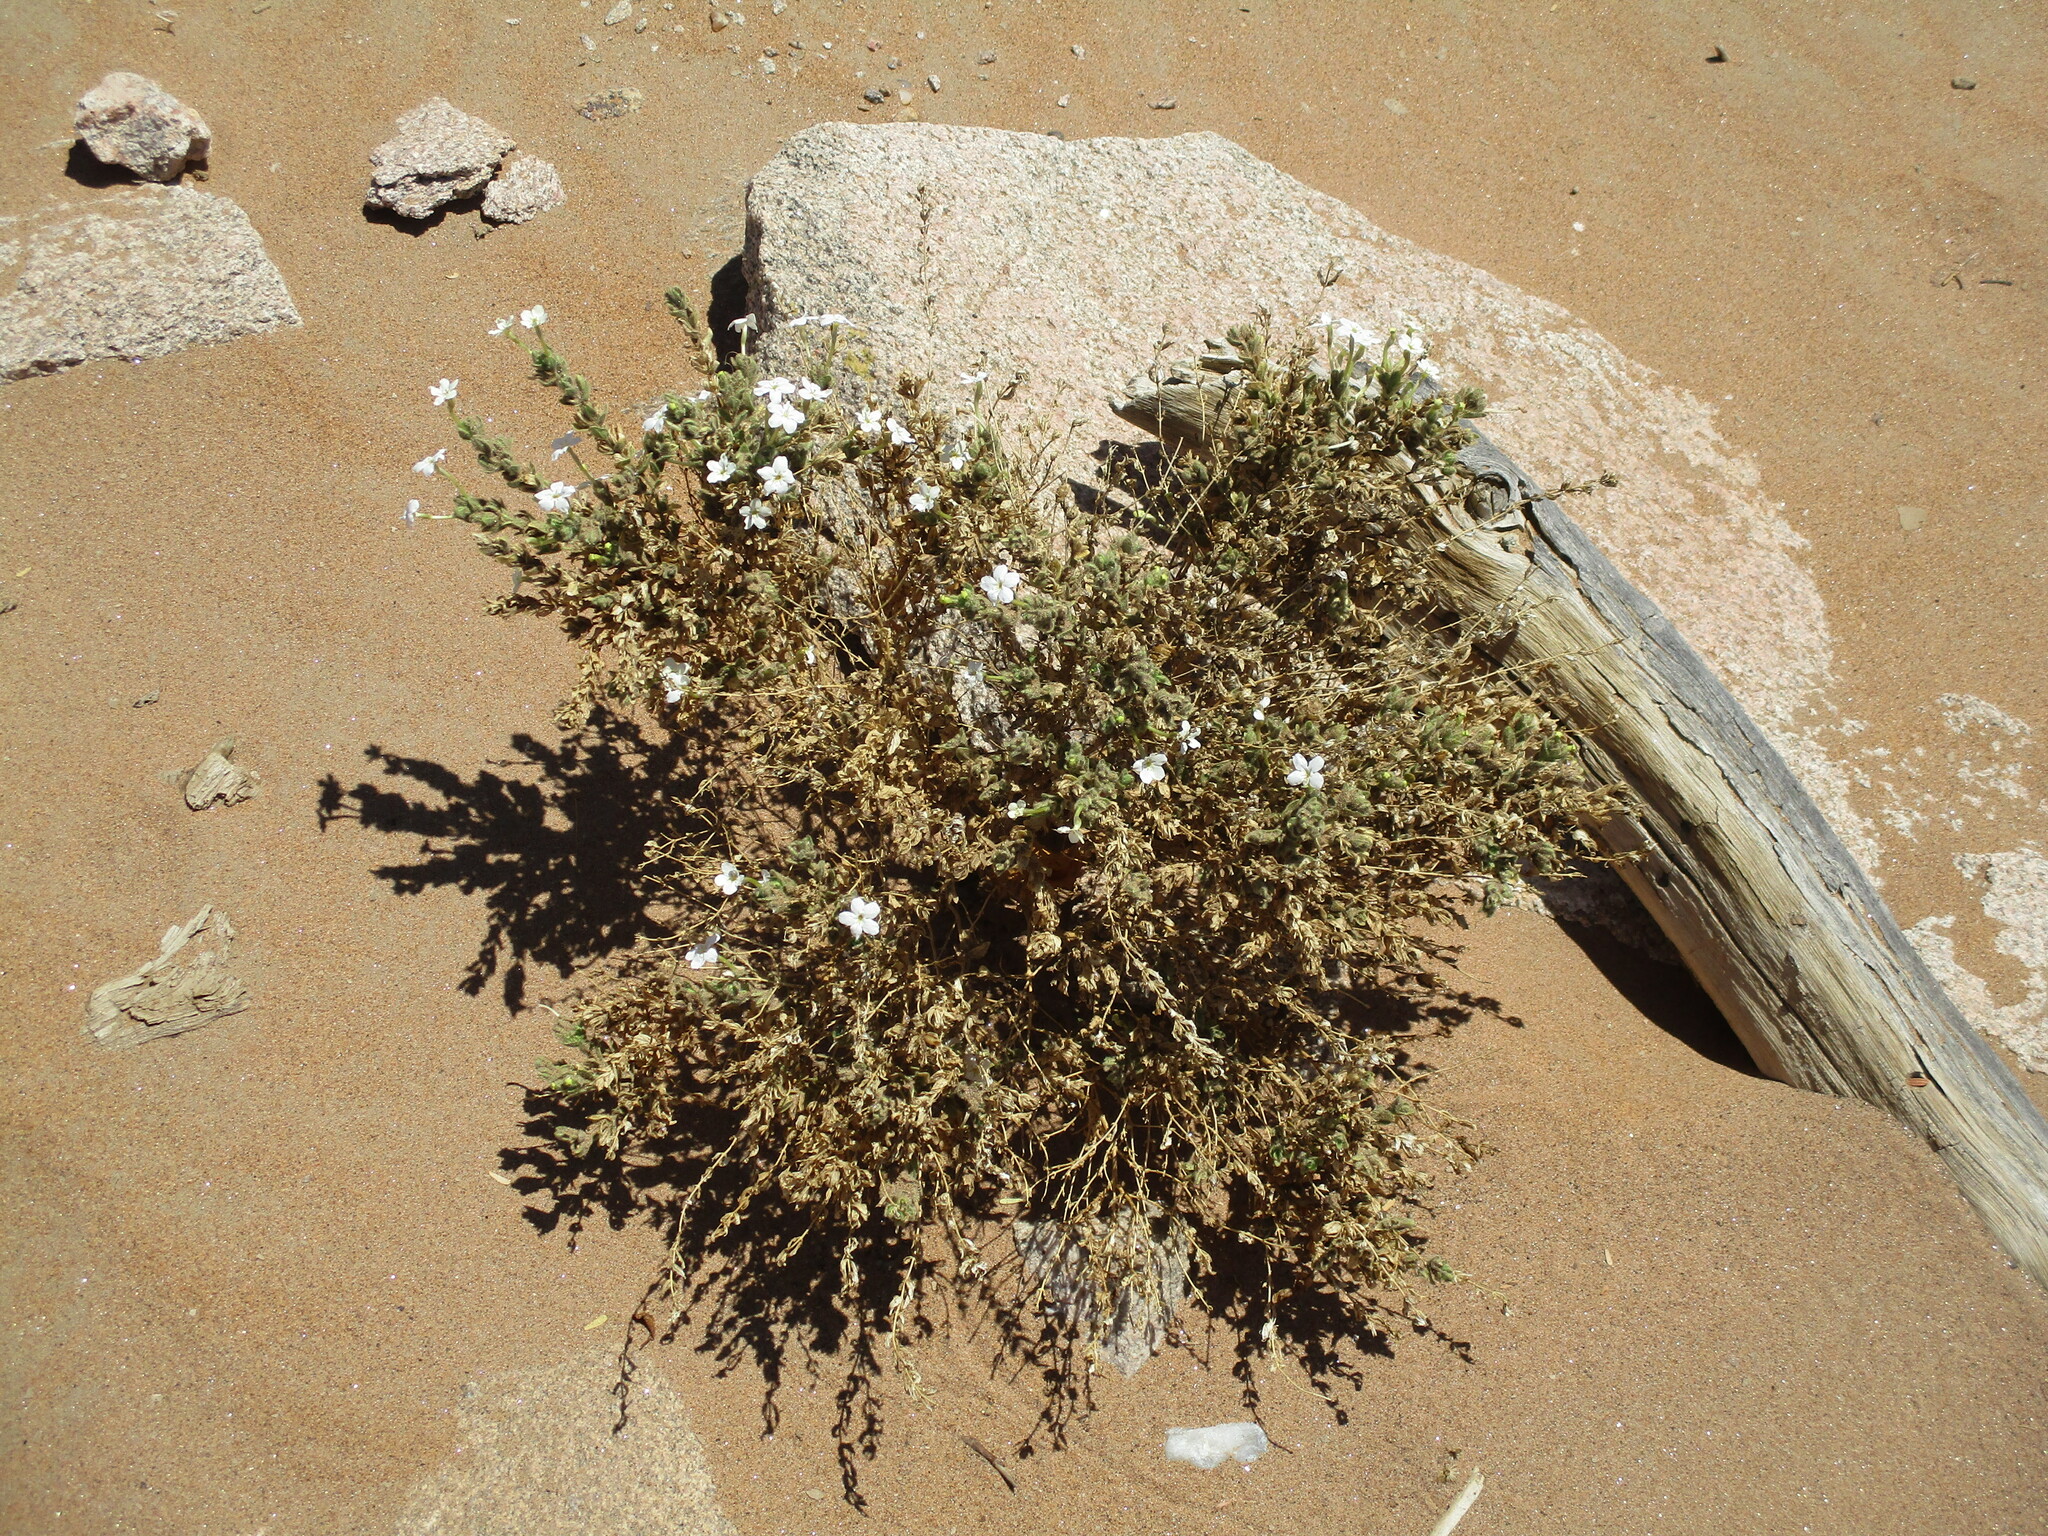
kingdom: Plantae
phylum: Tracheophyta
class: Magnoliopsida
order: Lamiales
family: Scrophulariaceae
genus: Jamesbrittenia
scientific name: Jamesbrittenia maxii
